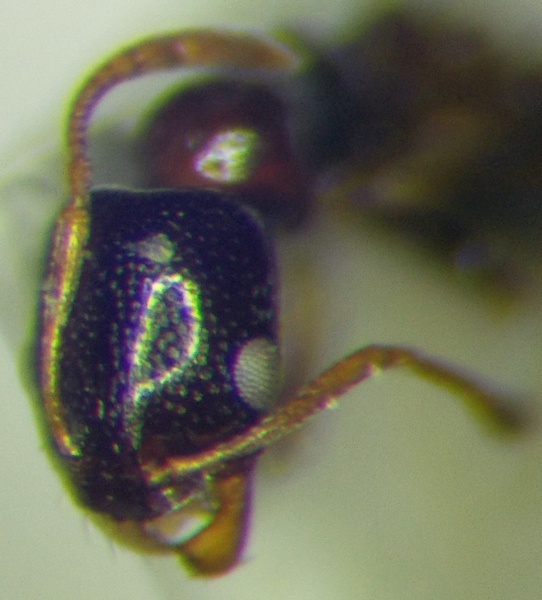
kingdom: Animalia
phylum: Arthropoda
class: Insecta
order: Hymenoptera
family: Formicidae
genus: Cardiocondyla
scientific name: Cardiocondyla ulianini
